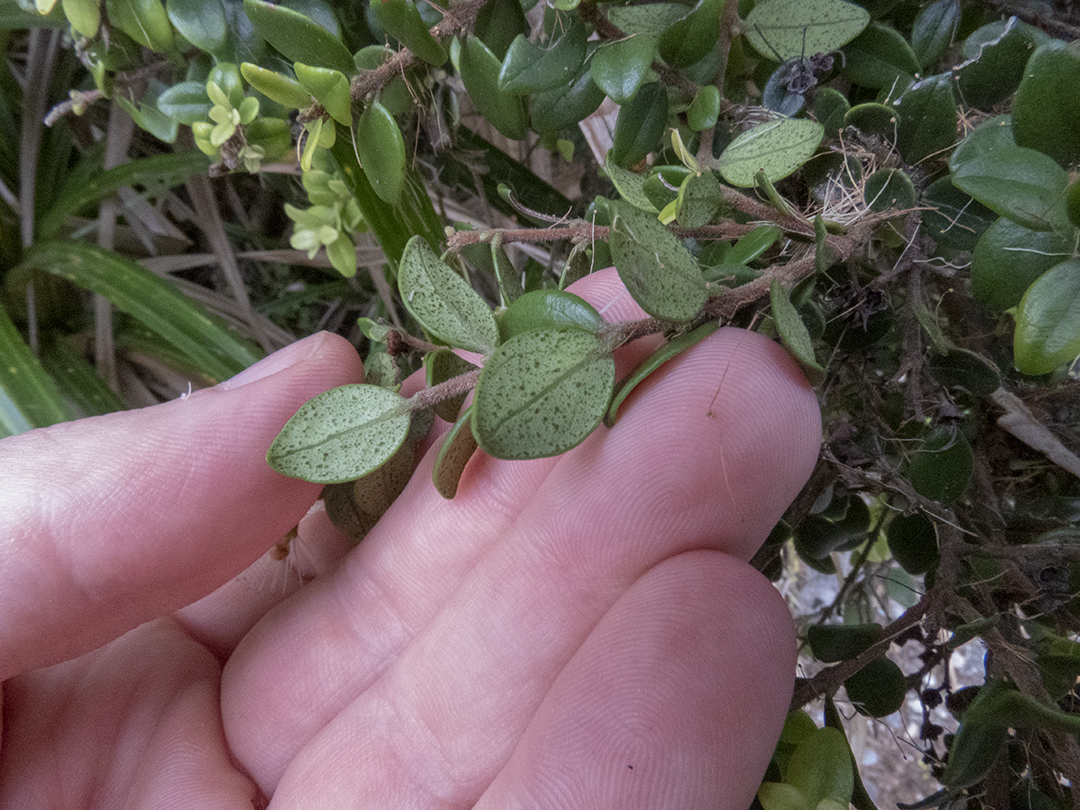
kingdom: Plantae
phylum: Tracheophyta
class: Magnoliopsida
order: Myrtales
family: Myrtaceae
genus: Metrosideros
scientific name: Metrosideros perforata
